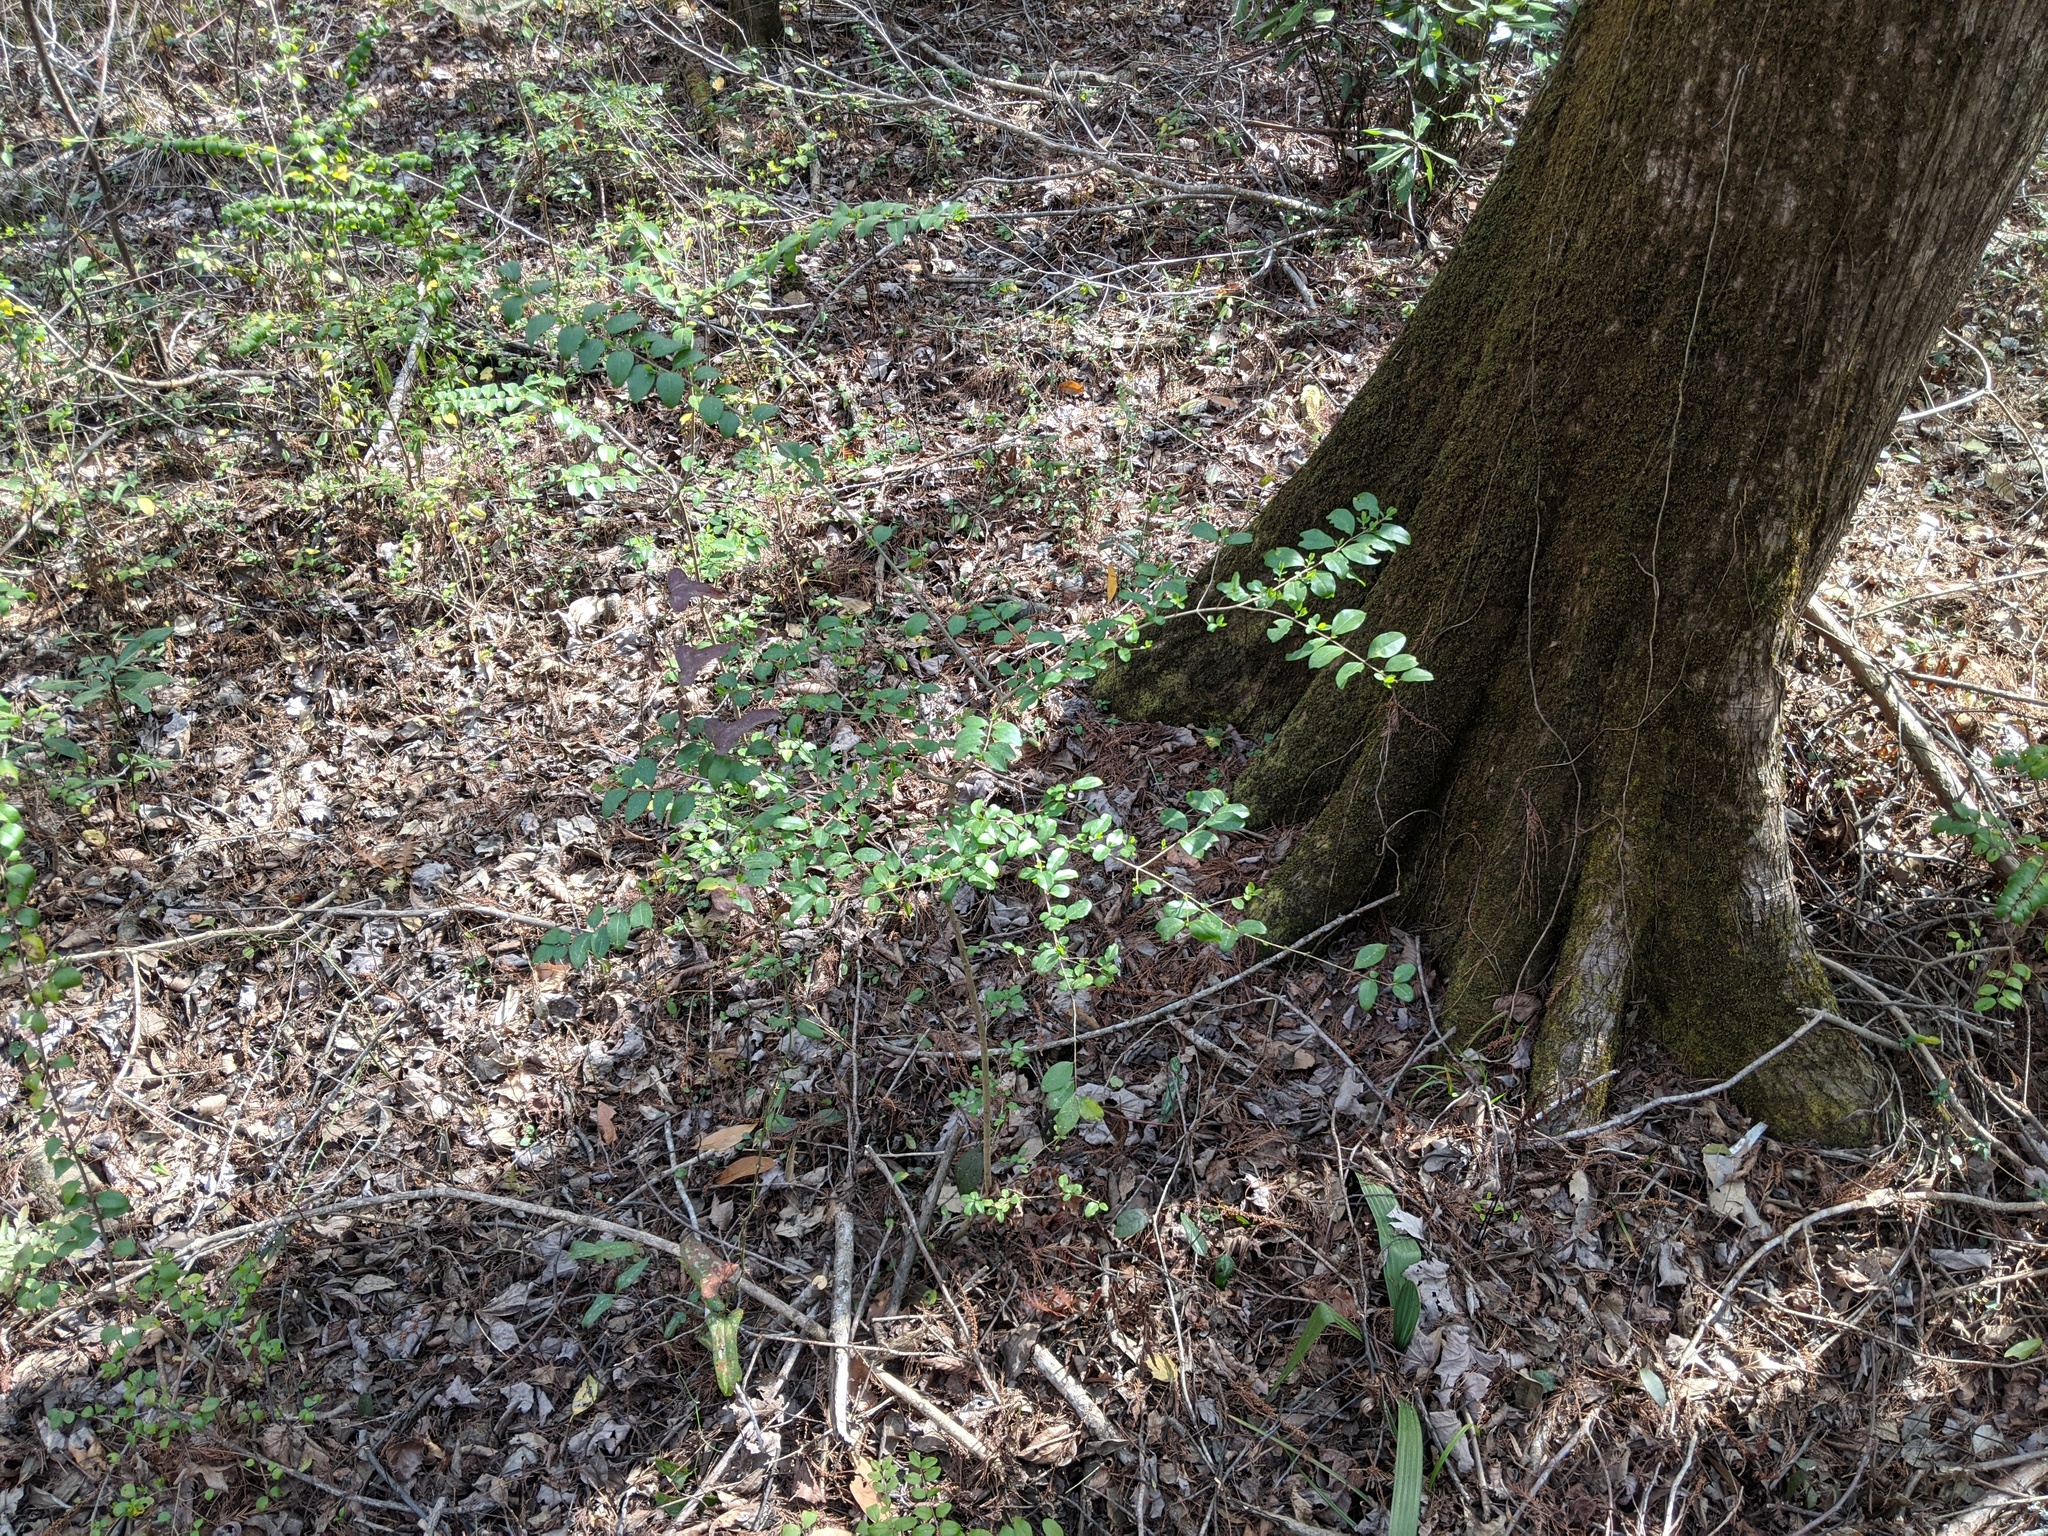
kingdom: Plantae
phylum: Tracheophyta
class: Magnoliopsida
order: Lamiales
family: Oleaceae
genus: Ligustrum
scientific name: Ligustrum sinense
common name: Chinese privet
